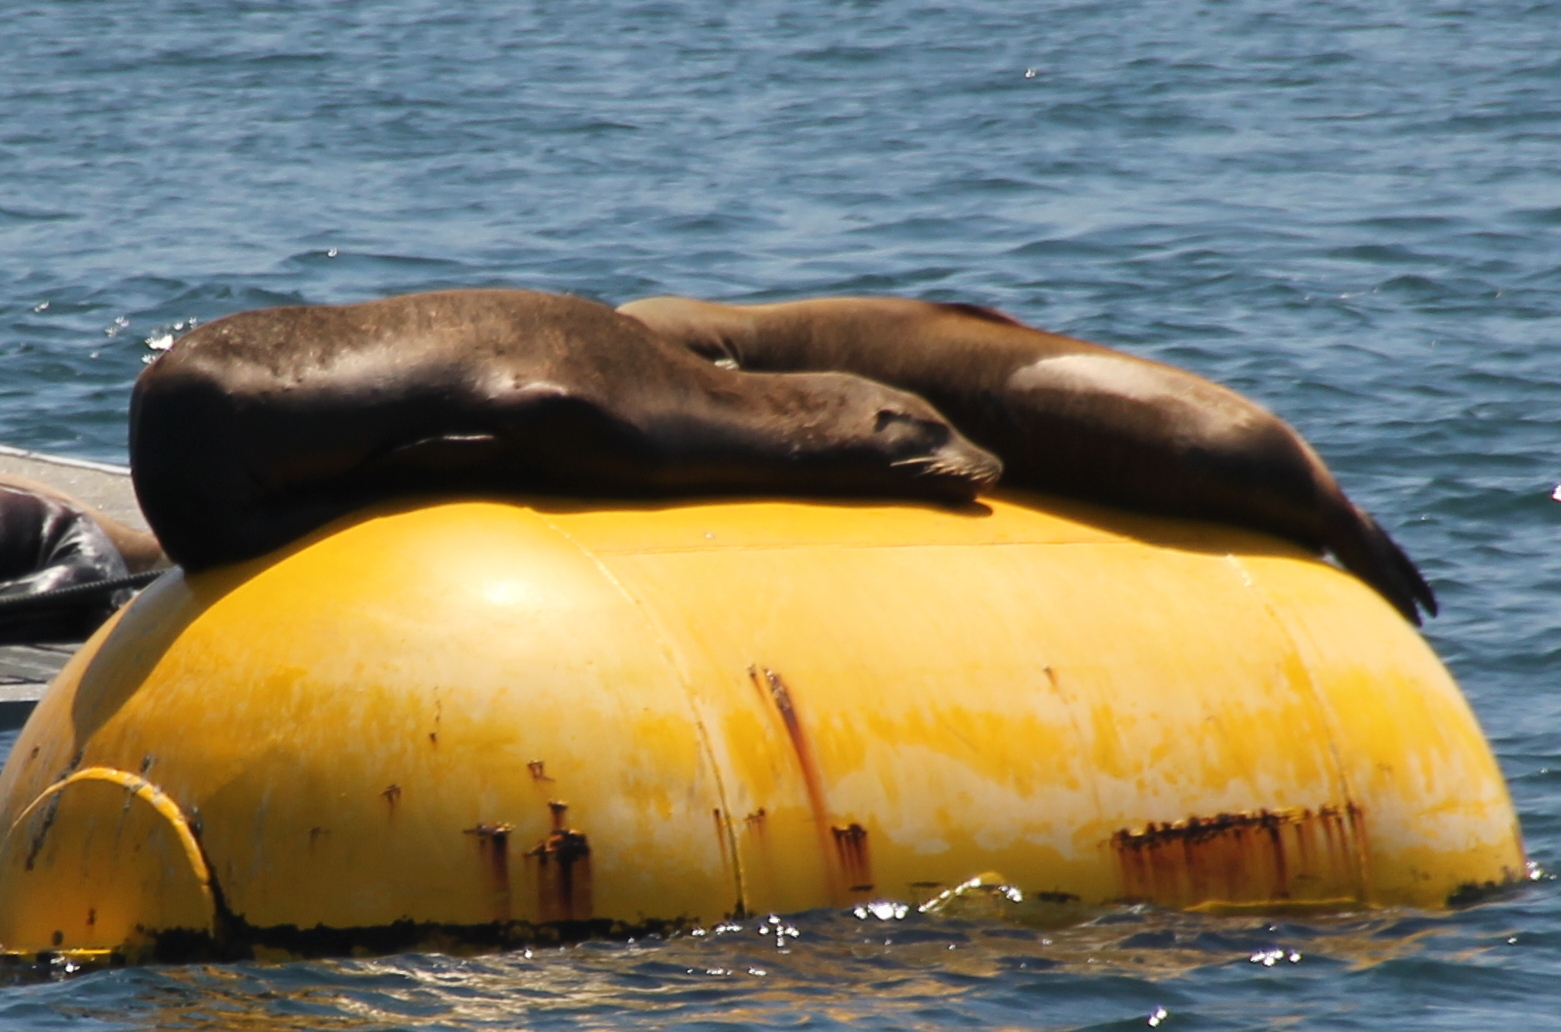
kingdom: Animalia
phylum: Chordata
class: Mammalia
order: Carnivora
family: Otariidae
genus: Zalophus
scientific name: Zalophus californianus
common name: California sea lion
